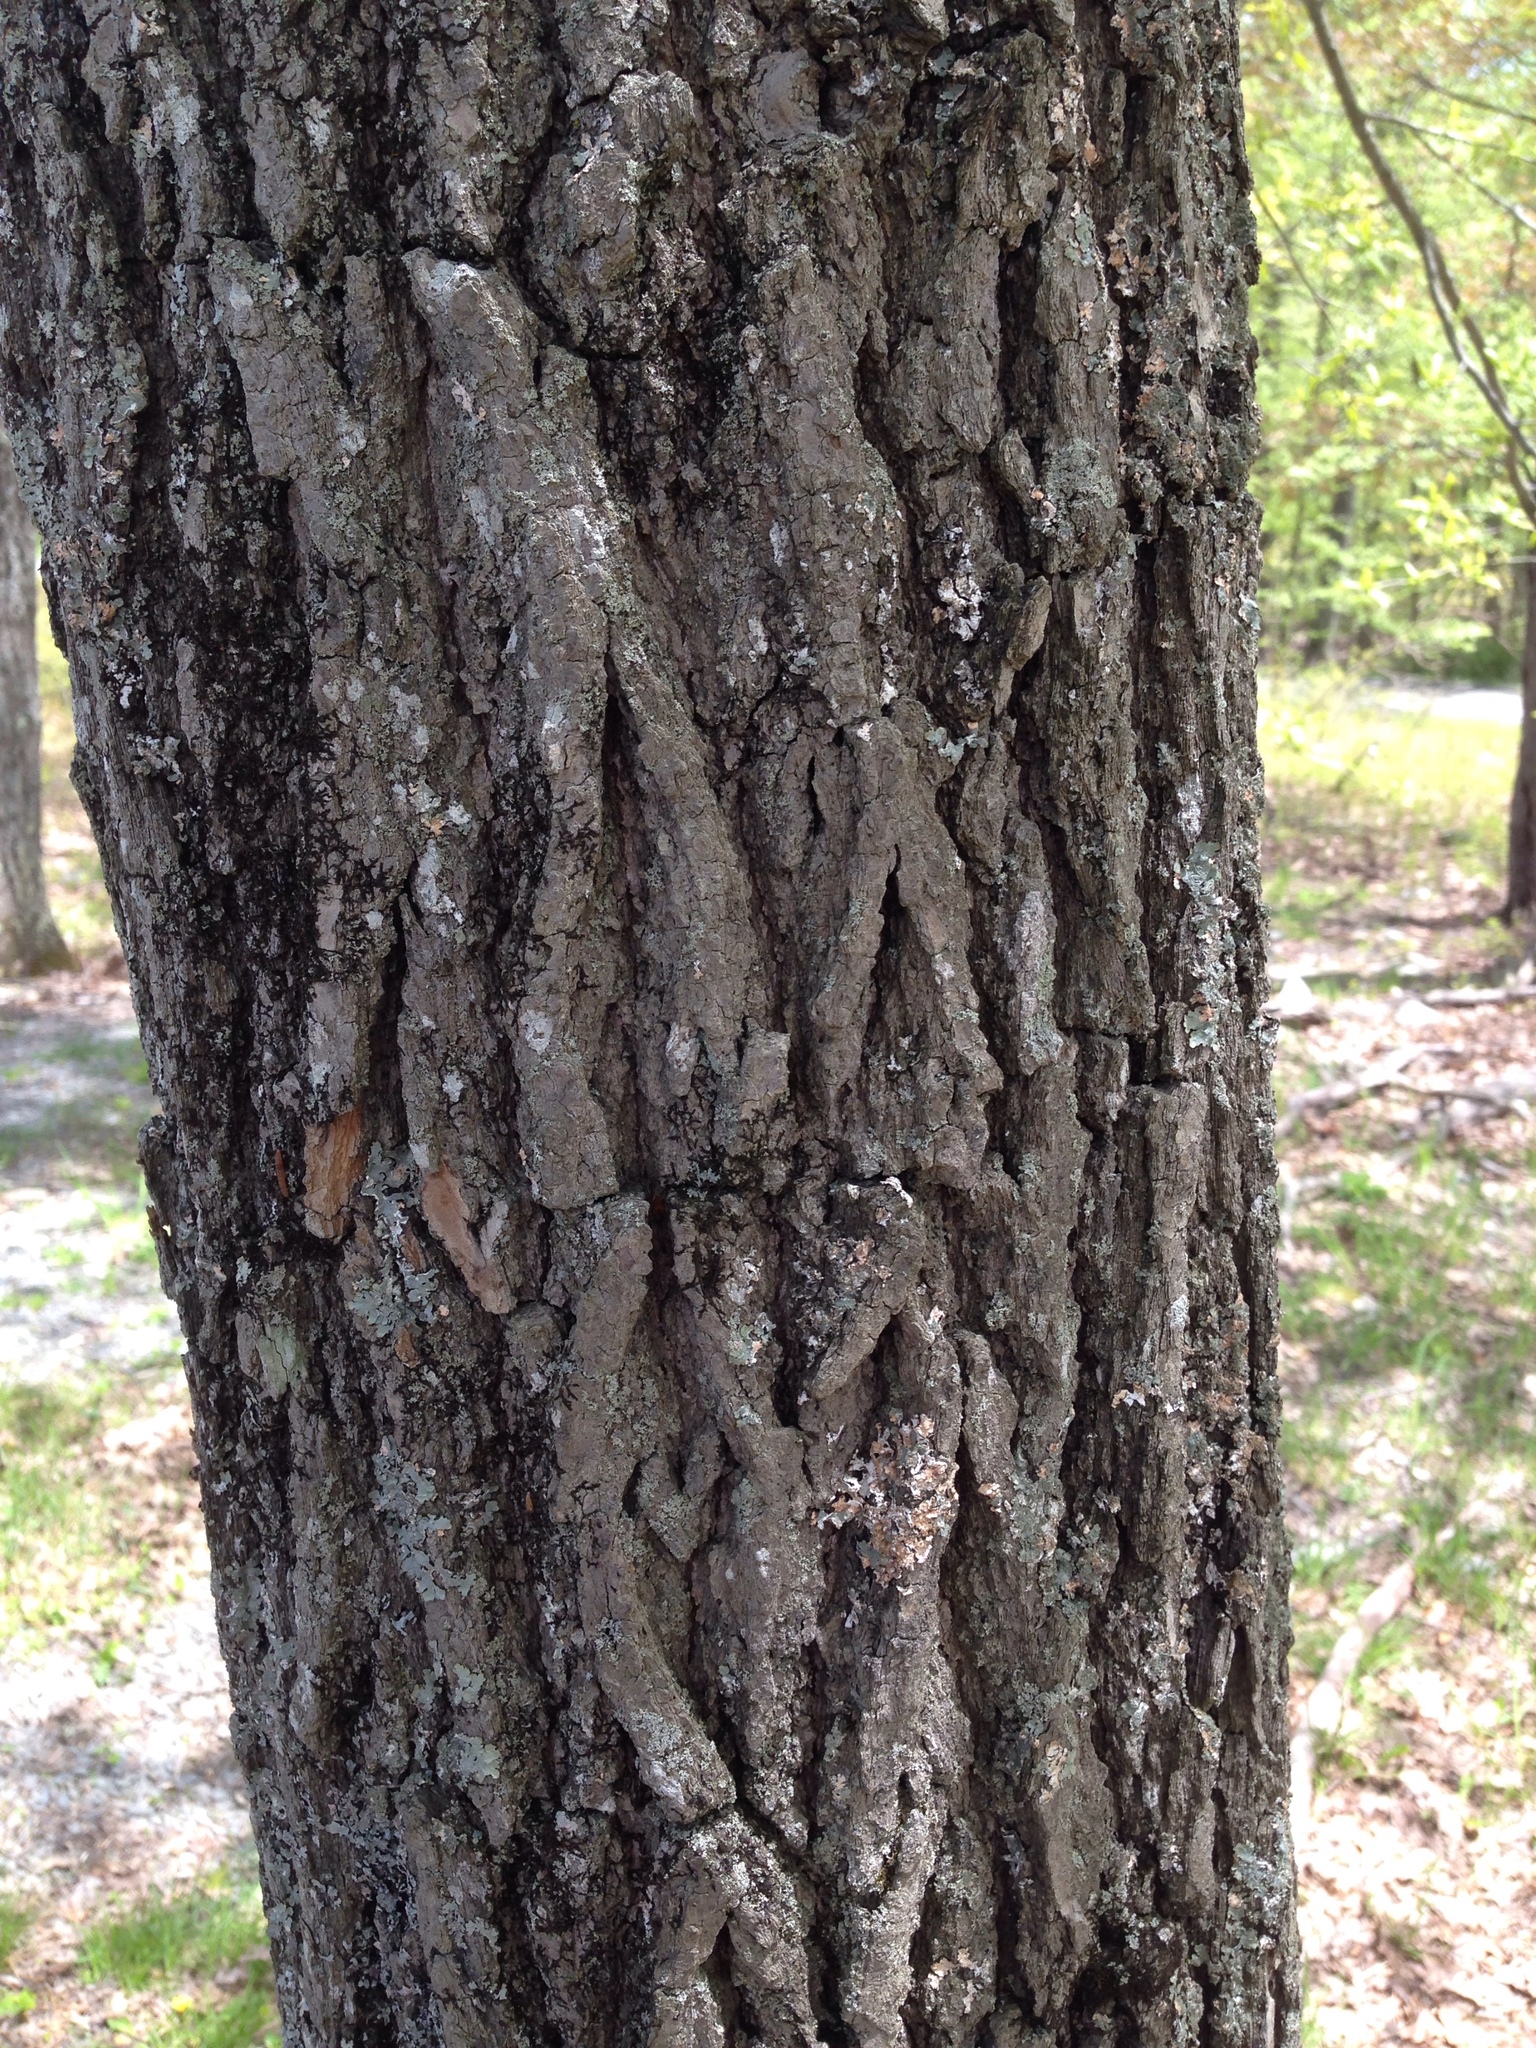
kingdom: Plantae
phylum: Tracheophyta
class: Magnoliopsida
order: Cornales
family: Nyssaceae
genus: Nyssa
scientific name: Nyssa sylvatica
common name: Black tupelo
